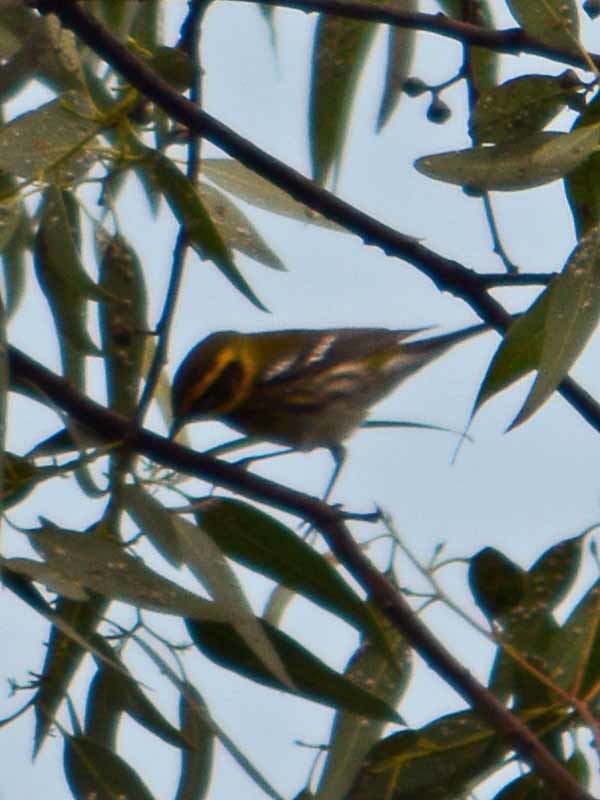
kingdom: Animalia
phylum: Chordata
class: Aves
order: Passeriformes
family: Parulidae
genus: Setophaga
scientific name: Setophaga townsendi
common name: Townsend's warbler
